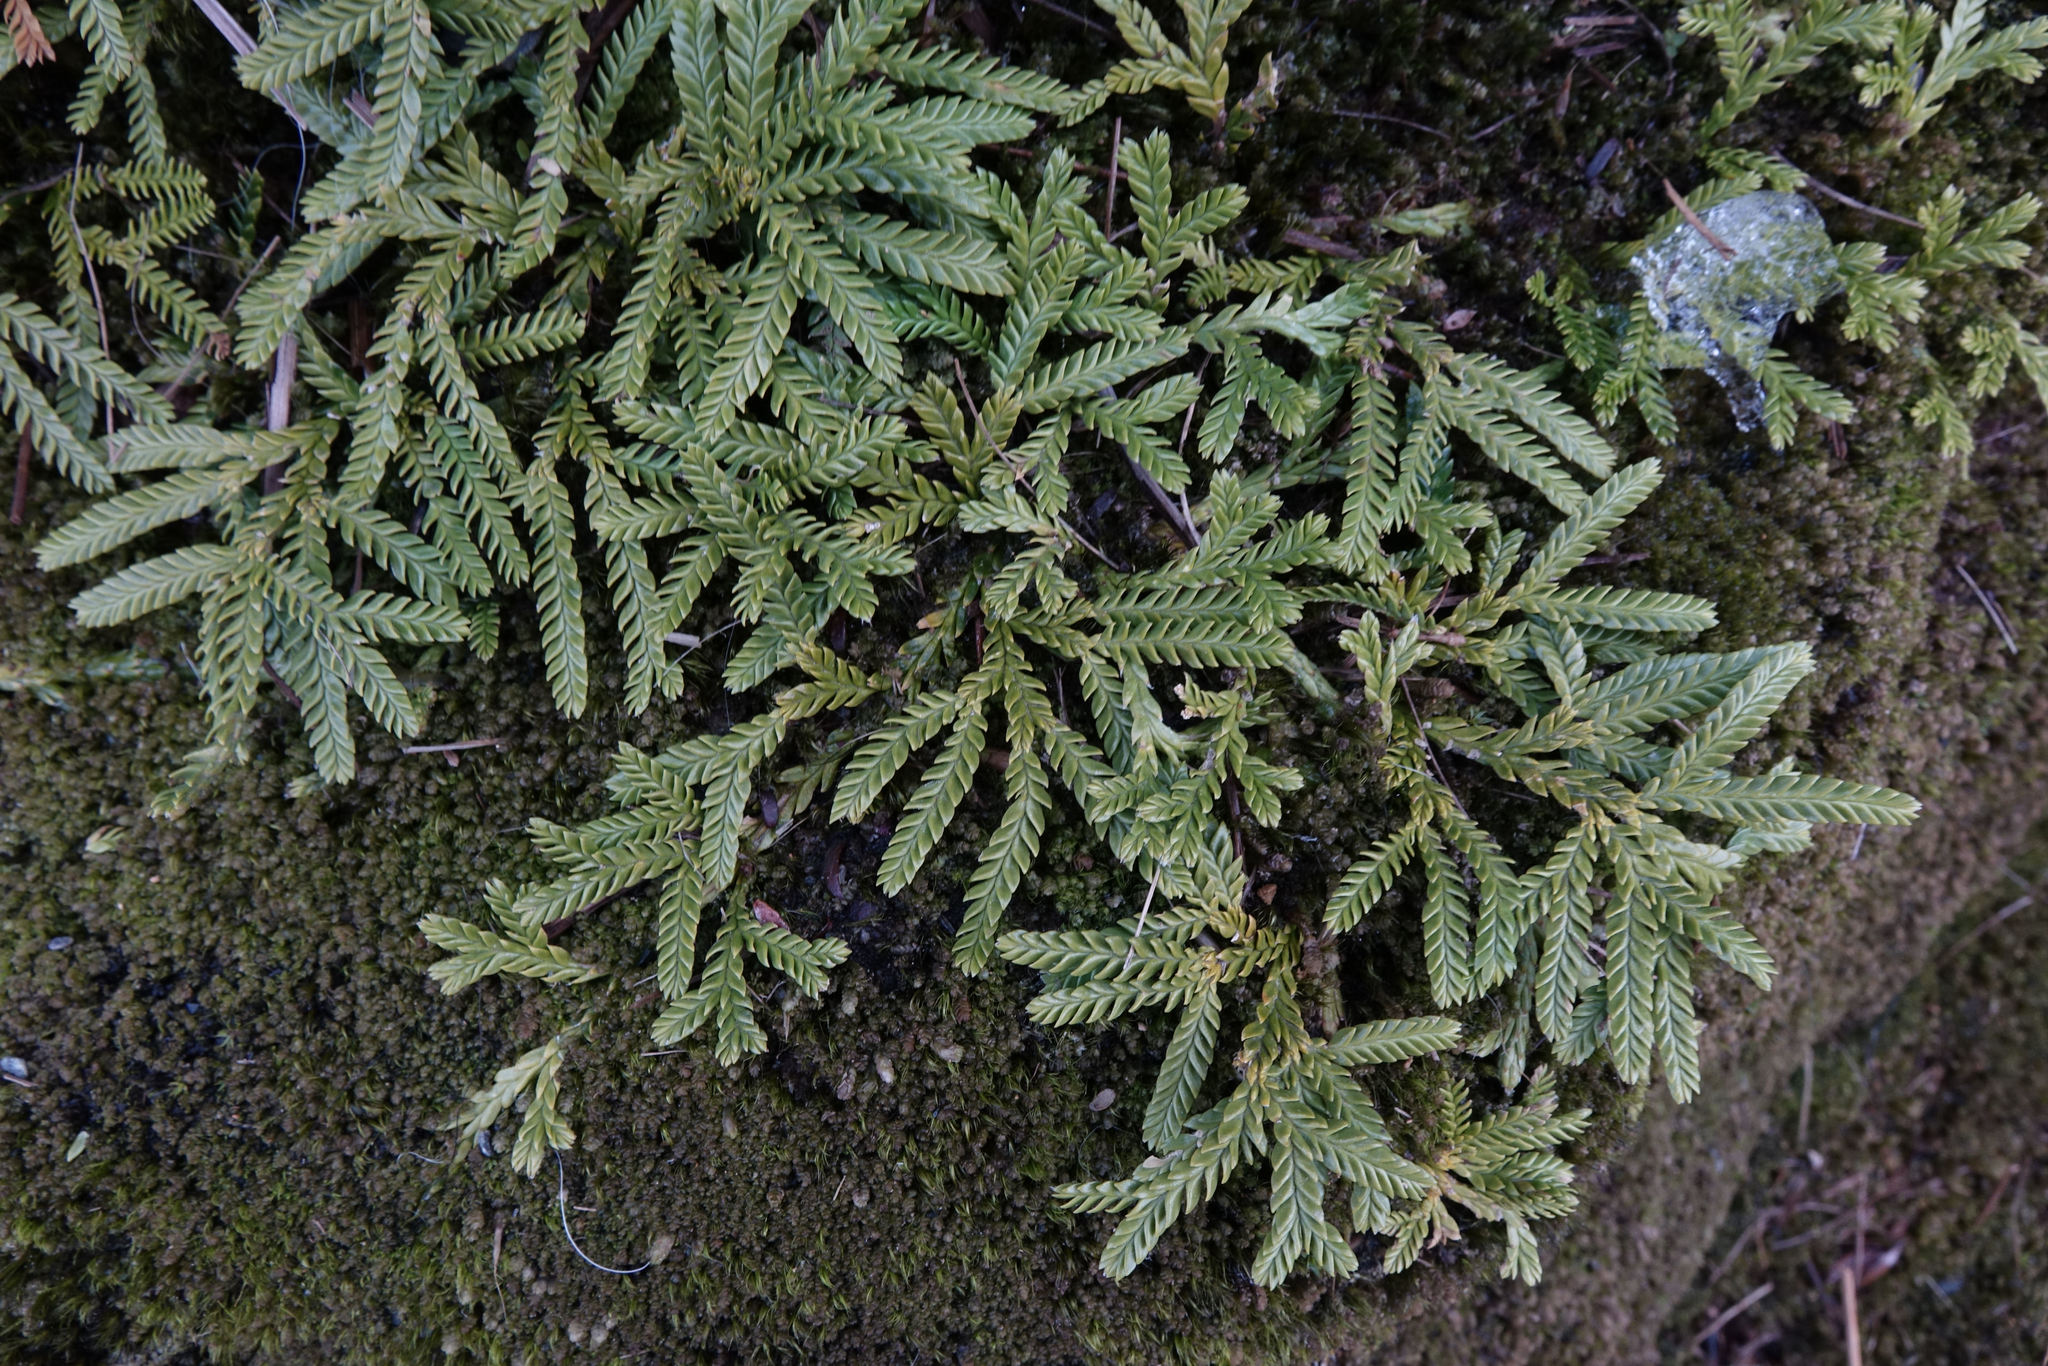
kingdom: Plantae
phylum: Tracheophyta
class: Lycopodiopsida
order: Lycopodiales
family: Lycopodiaceae
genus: Diphasium
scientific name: Diphasium scariosum
